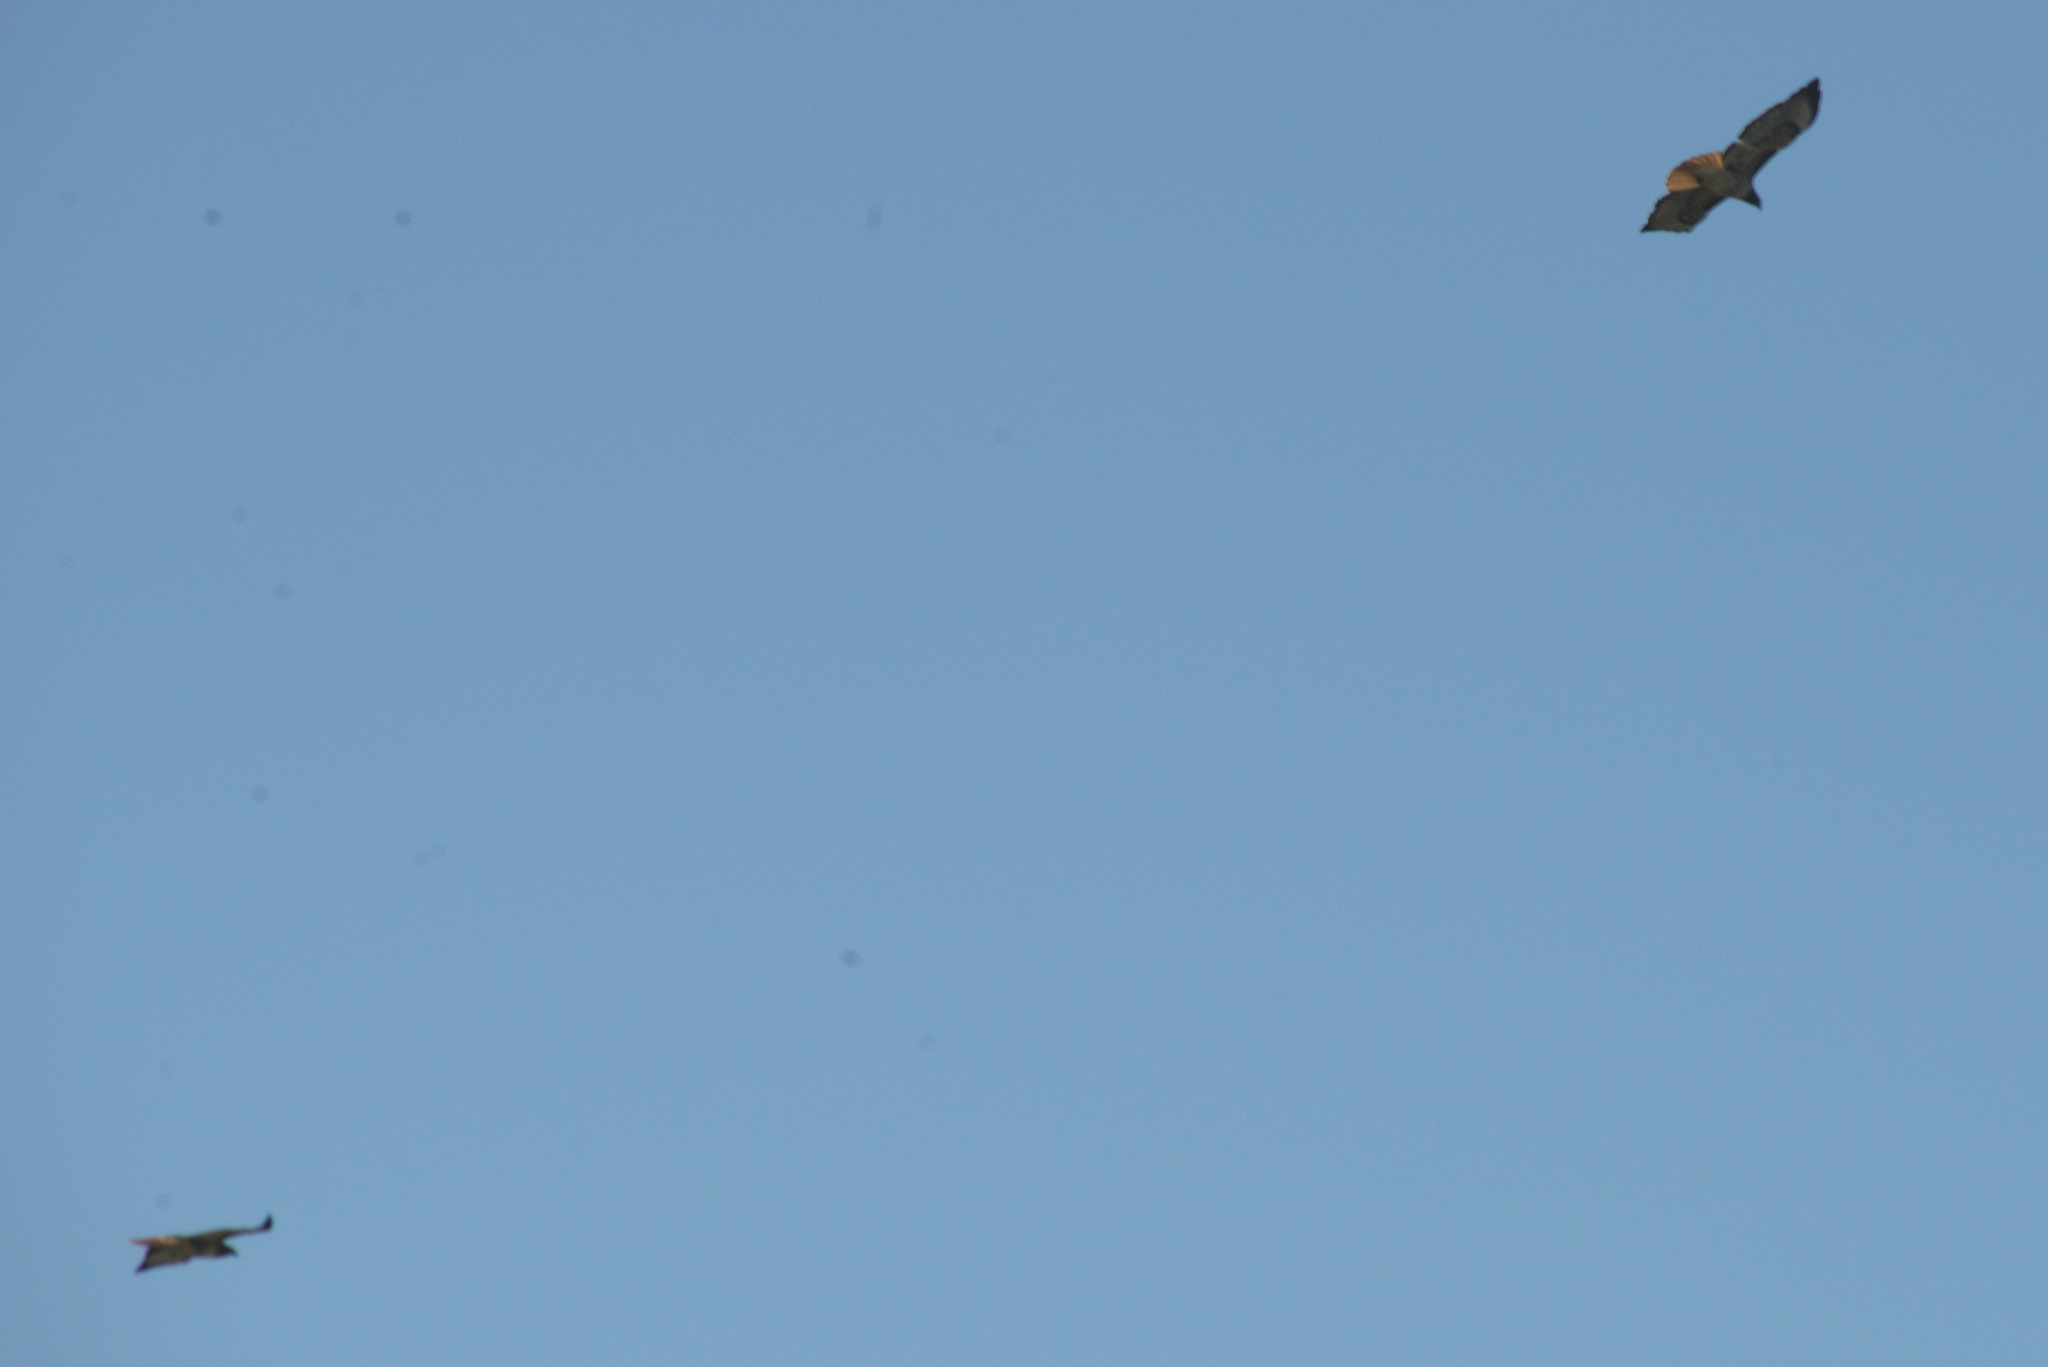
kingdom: Animalia
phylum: Chordata
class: Aves
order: Accipitriformes
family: Accipitridae
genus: Buteo
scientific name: Buteo jamaicensis
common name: Red-tailed hawk
